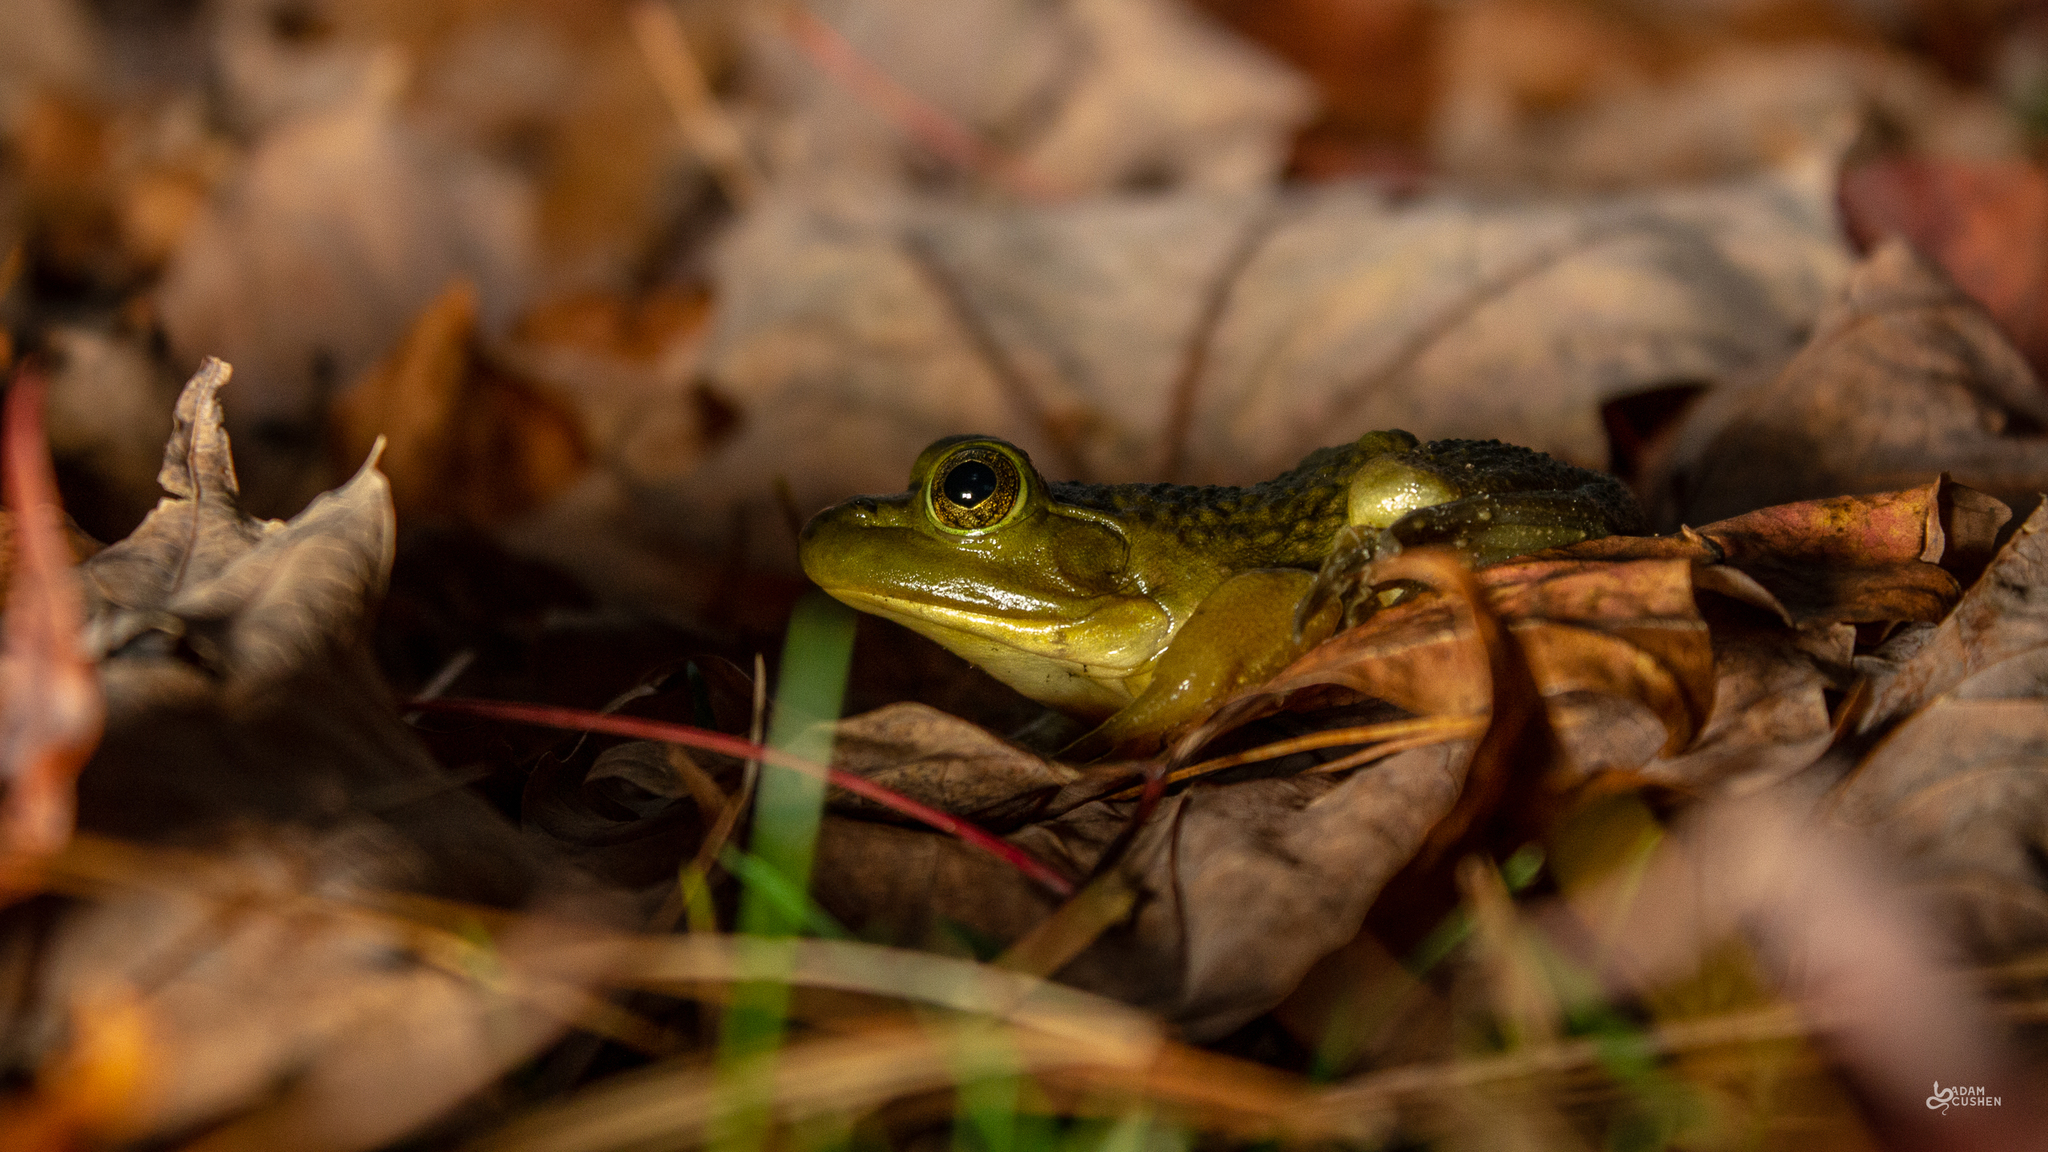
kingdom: Animalia
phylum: Chordata
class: Amphibia
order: Anura
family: Ranidae
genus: Lithobates
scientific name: Lithobates catesbeianus
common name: American bullfrog
